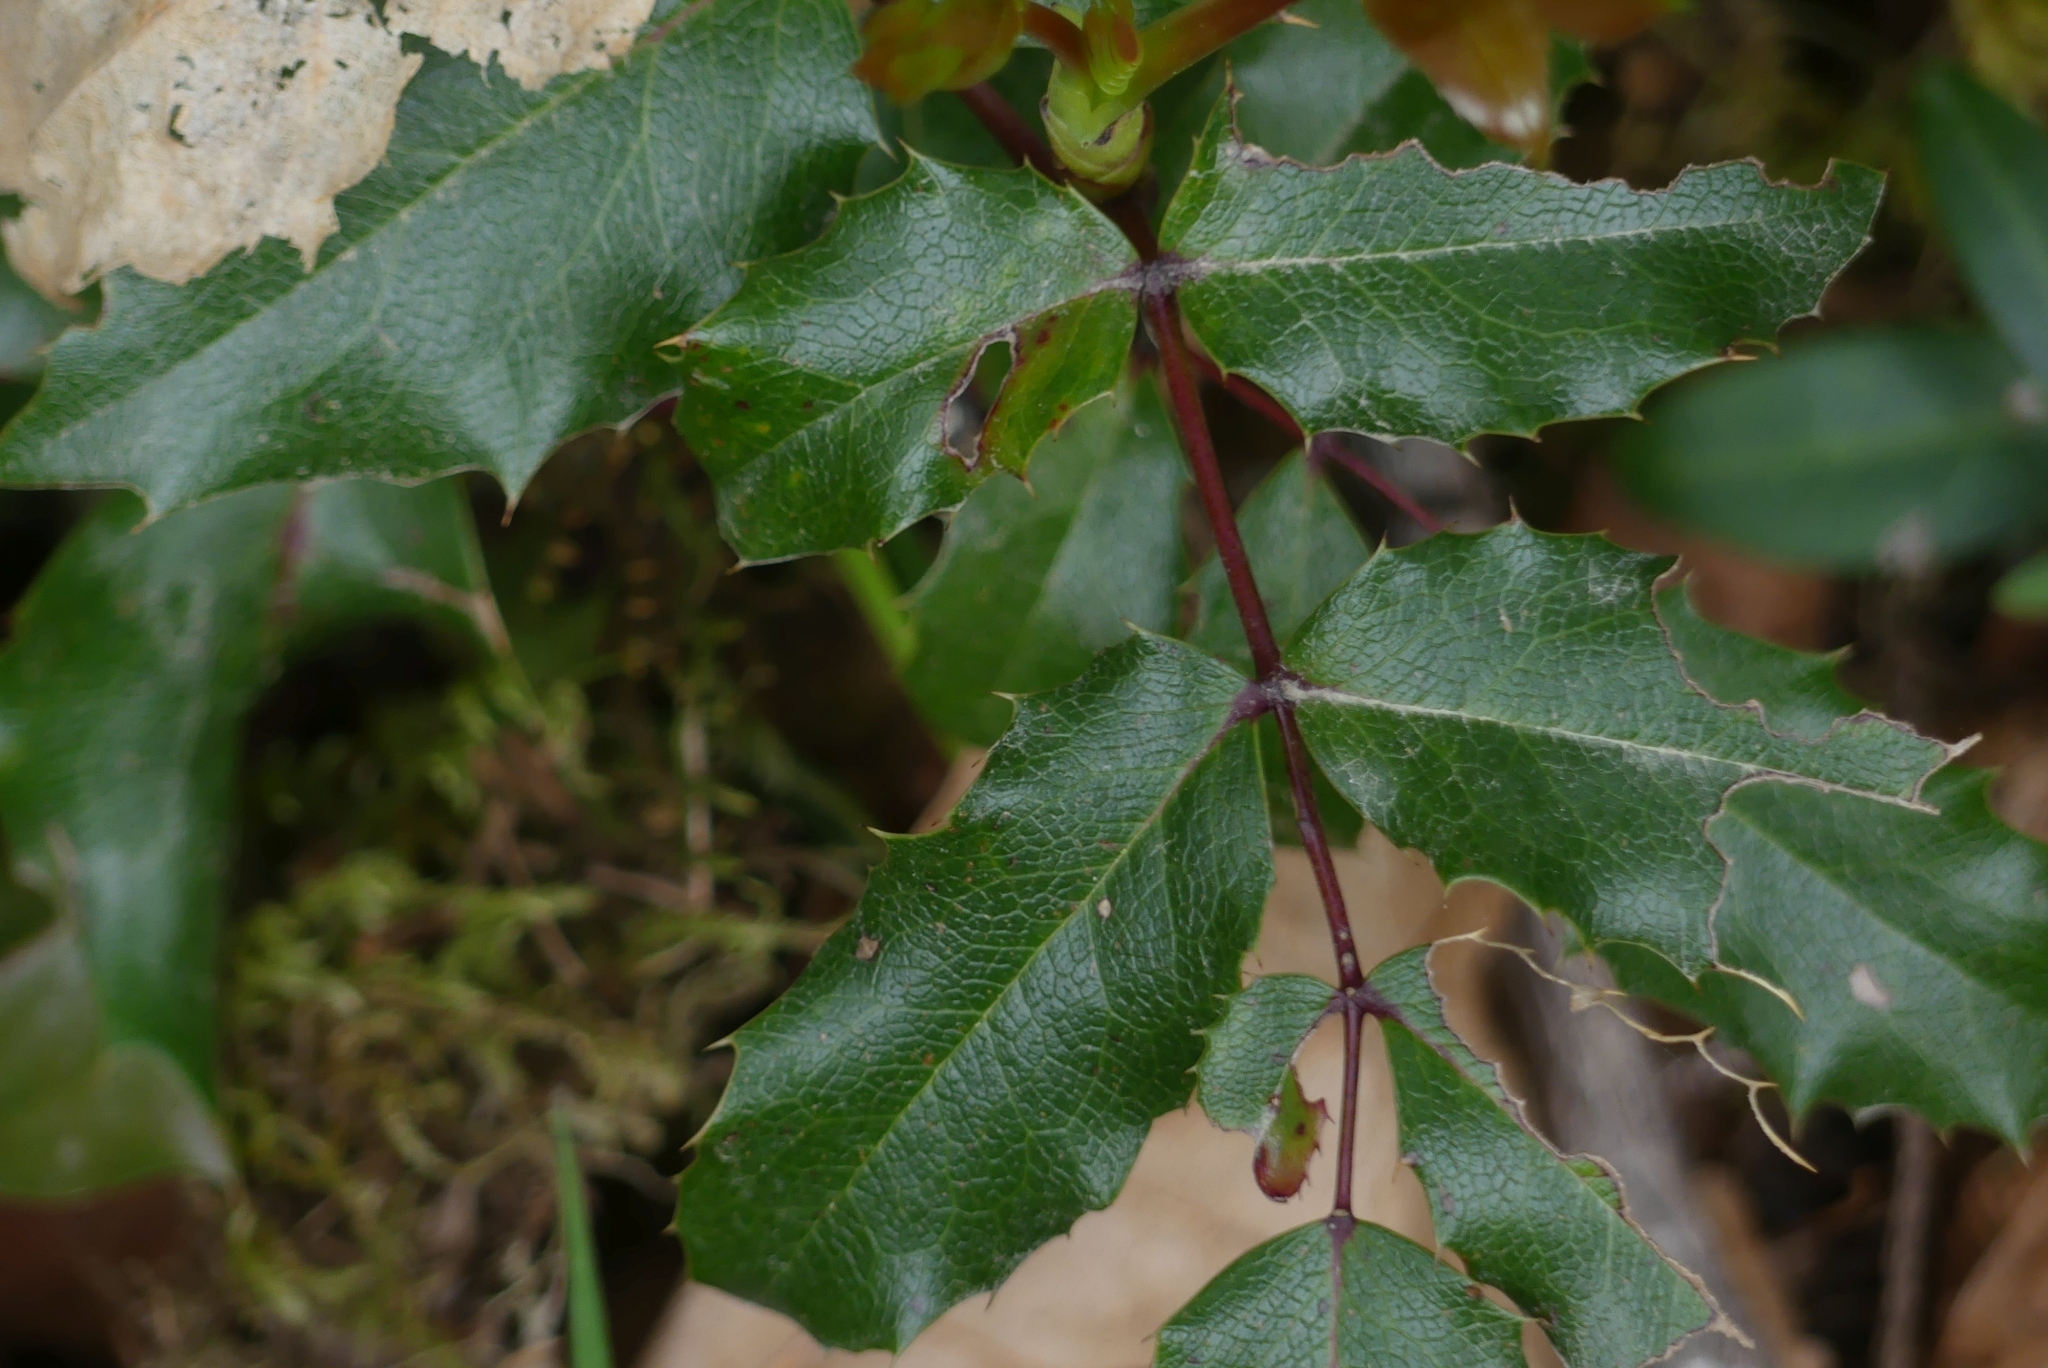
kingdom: Plantae
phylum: Tracheophyta
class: Magnoliopsida
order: Ranunculales
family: Berberidaceae
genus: Mahonia
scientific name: Mahonia aquifolium
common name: Oregon-grape
